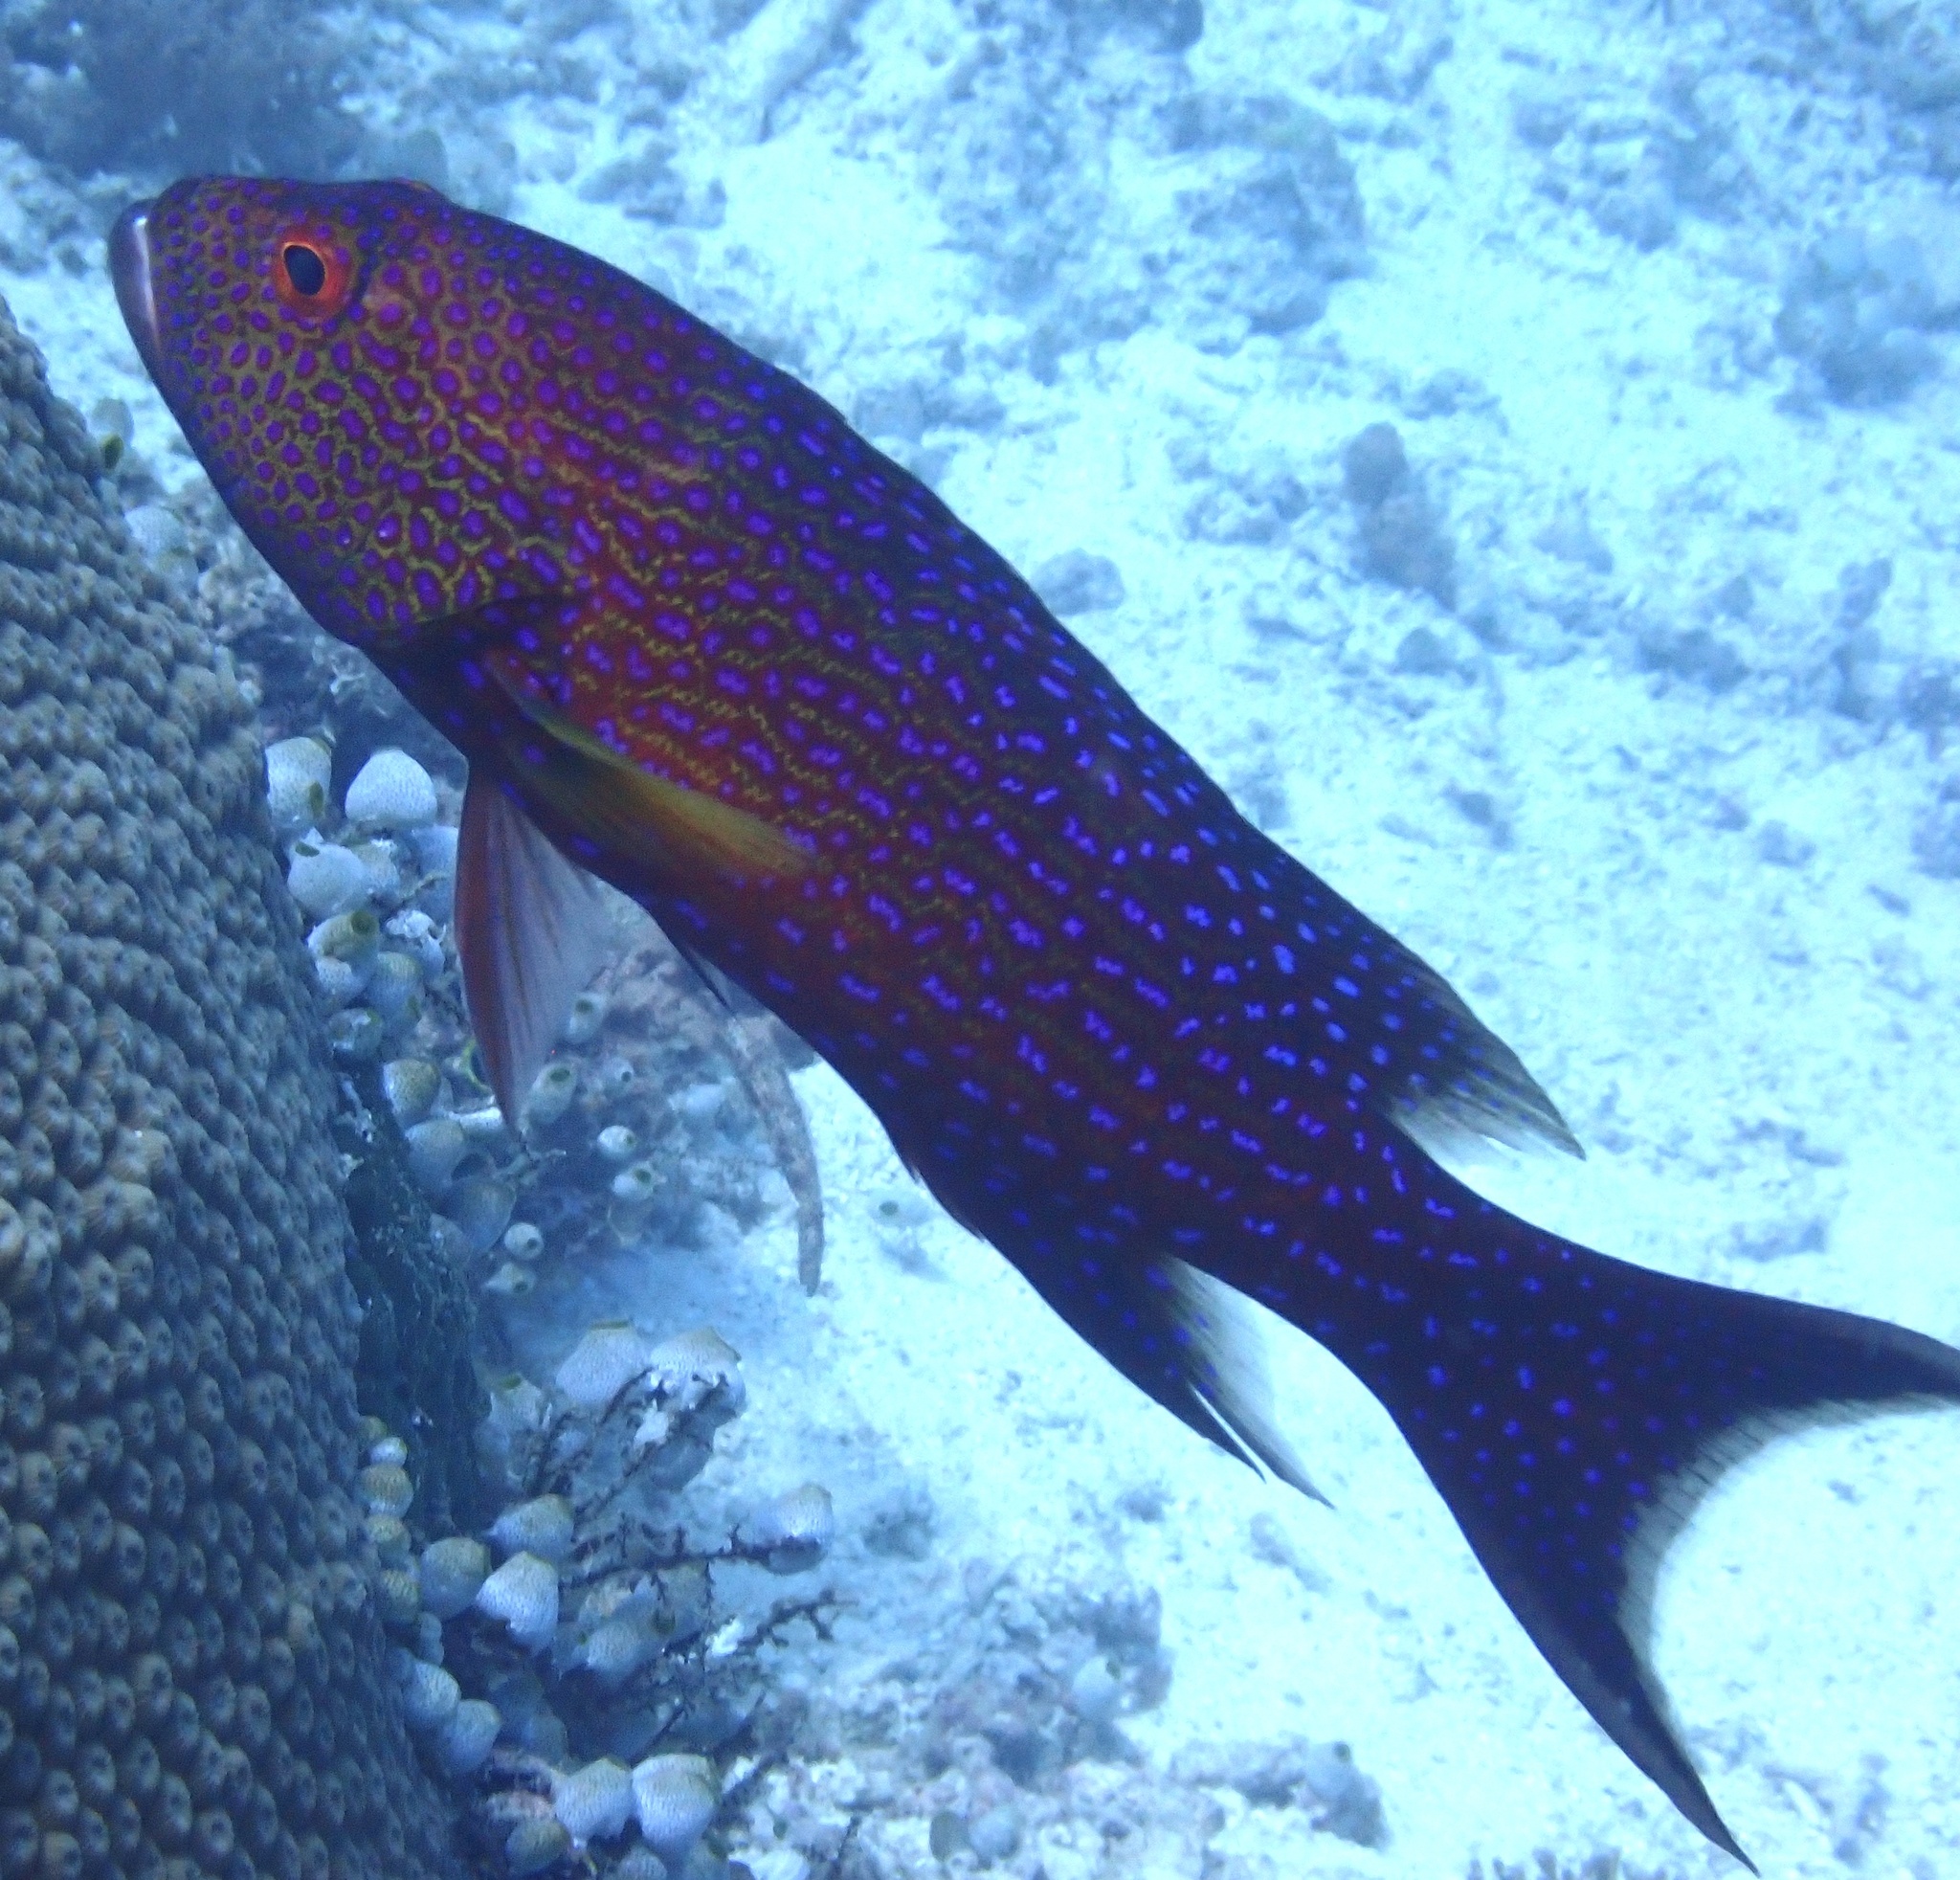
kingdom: Animalia
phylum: Chordata
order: Perciformes
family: Serranidae
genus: Variola
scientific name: Variola albimarginata
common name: Lunar-tailed grouper
